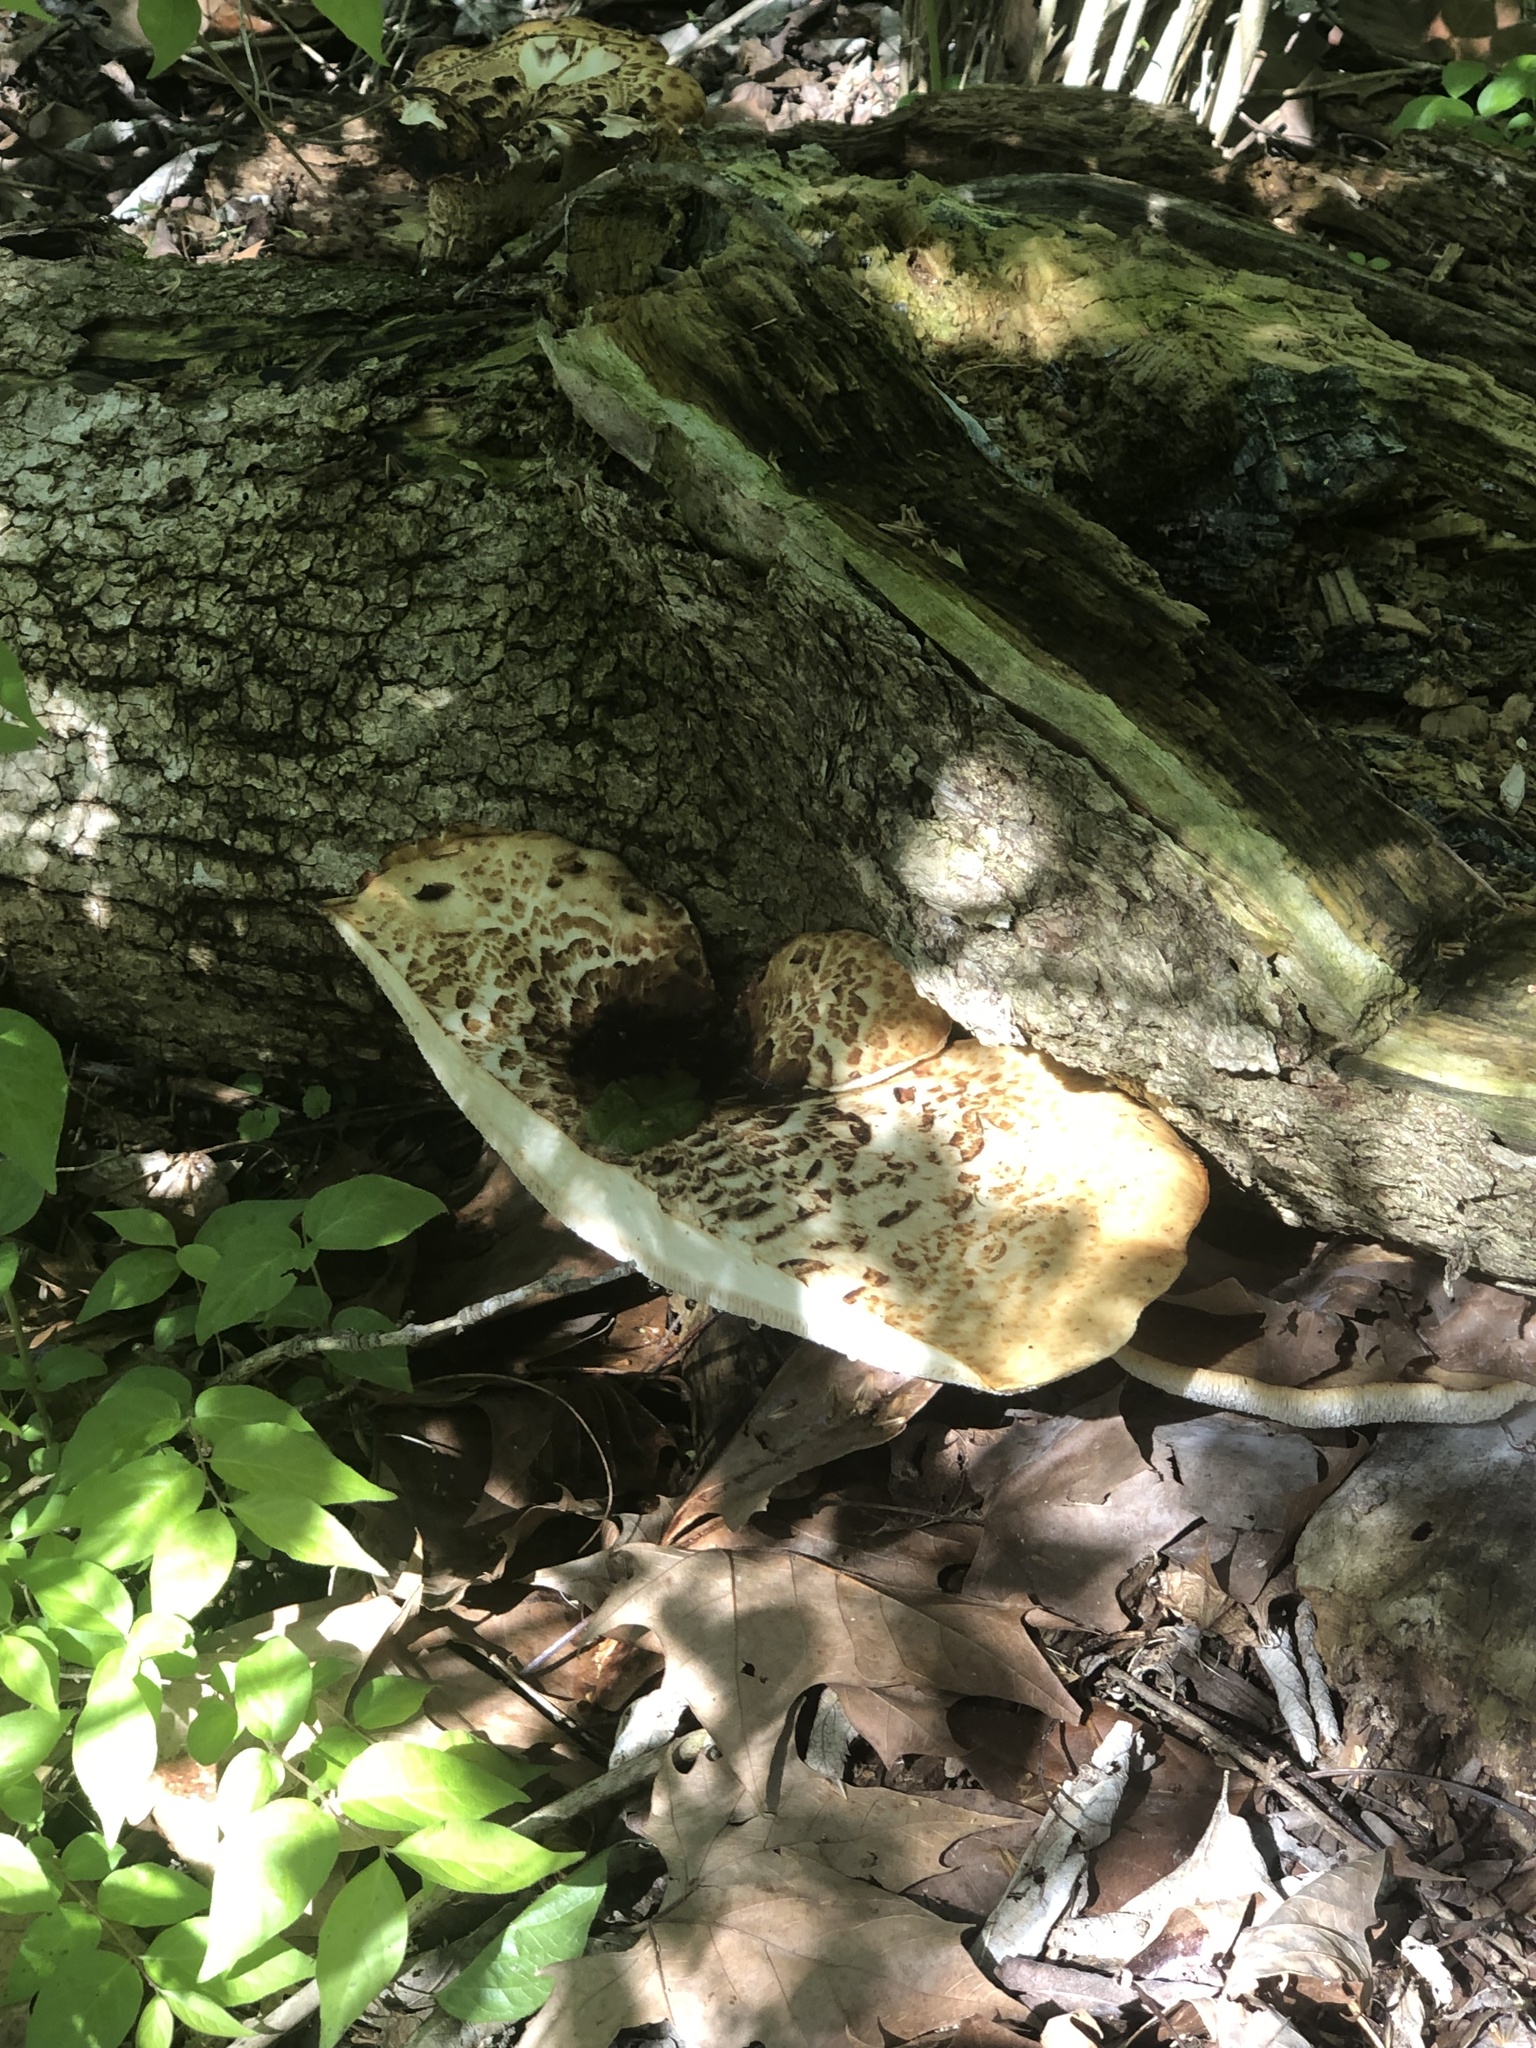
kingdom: Fungi
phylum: Basidiomycota
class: Agaricomycetes
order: Polyporales
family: Polyporaceae
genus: Cerioporus
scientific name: Cerioporus squamosus
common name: Dryad's saddle
